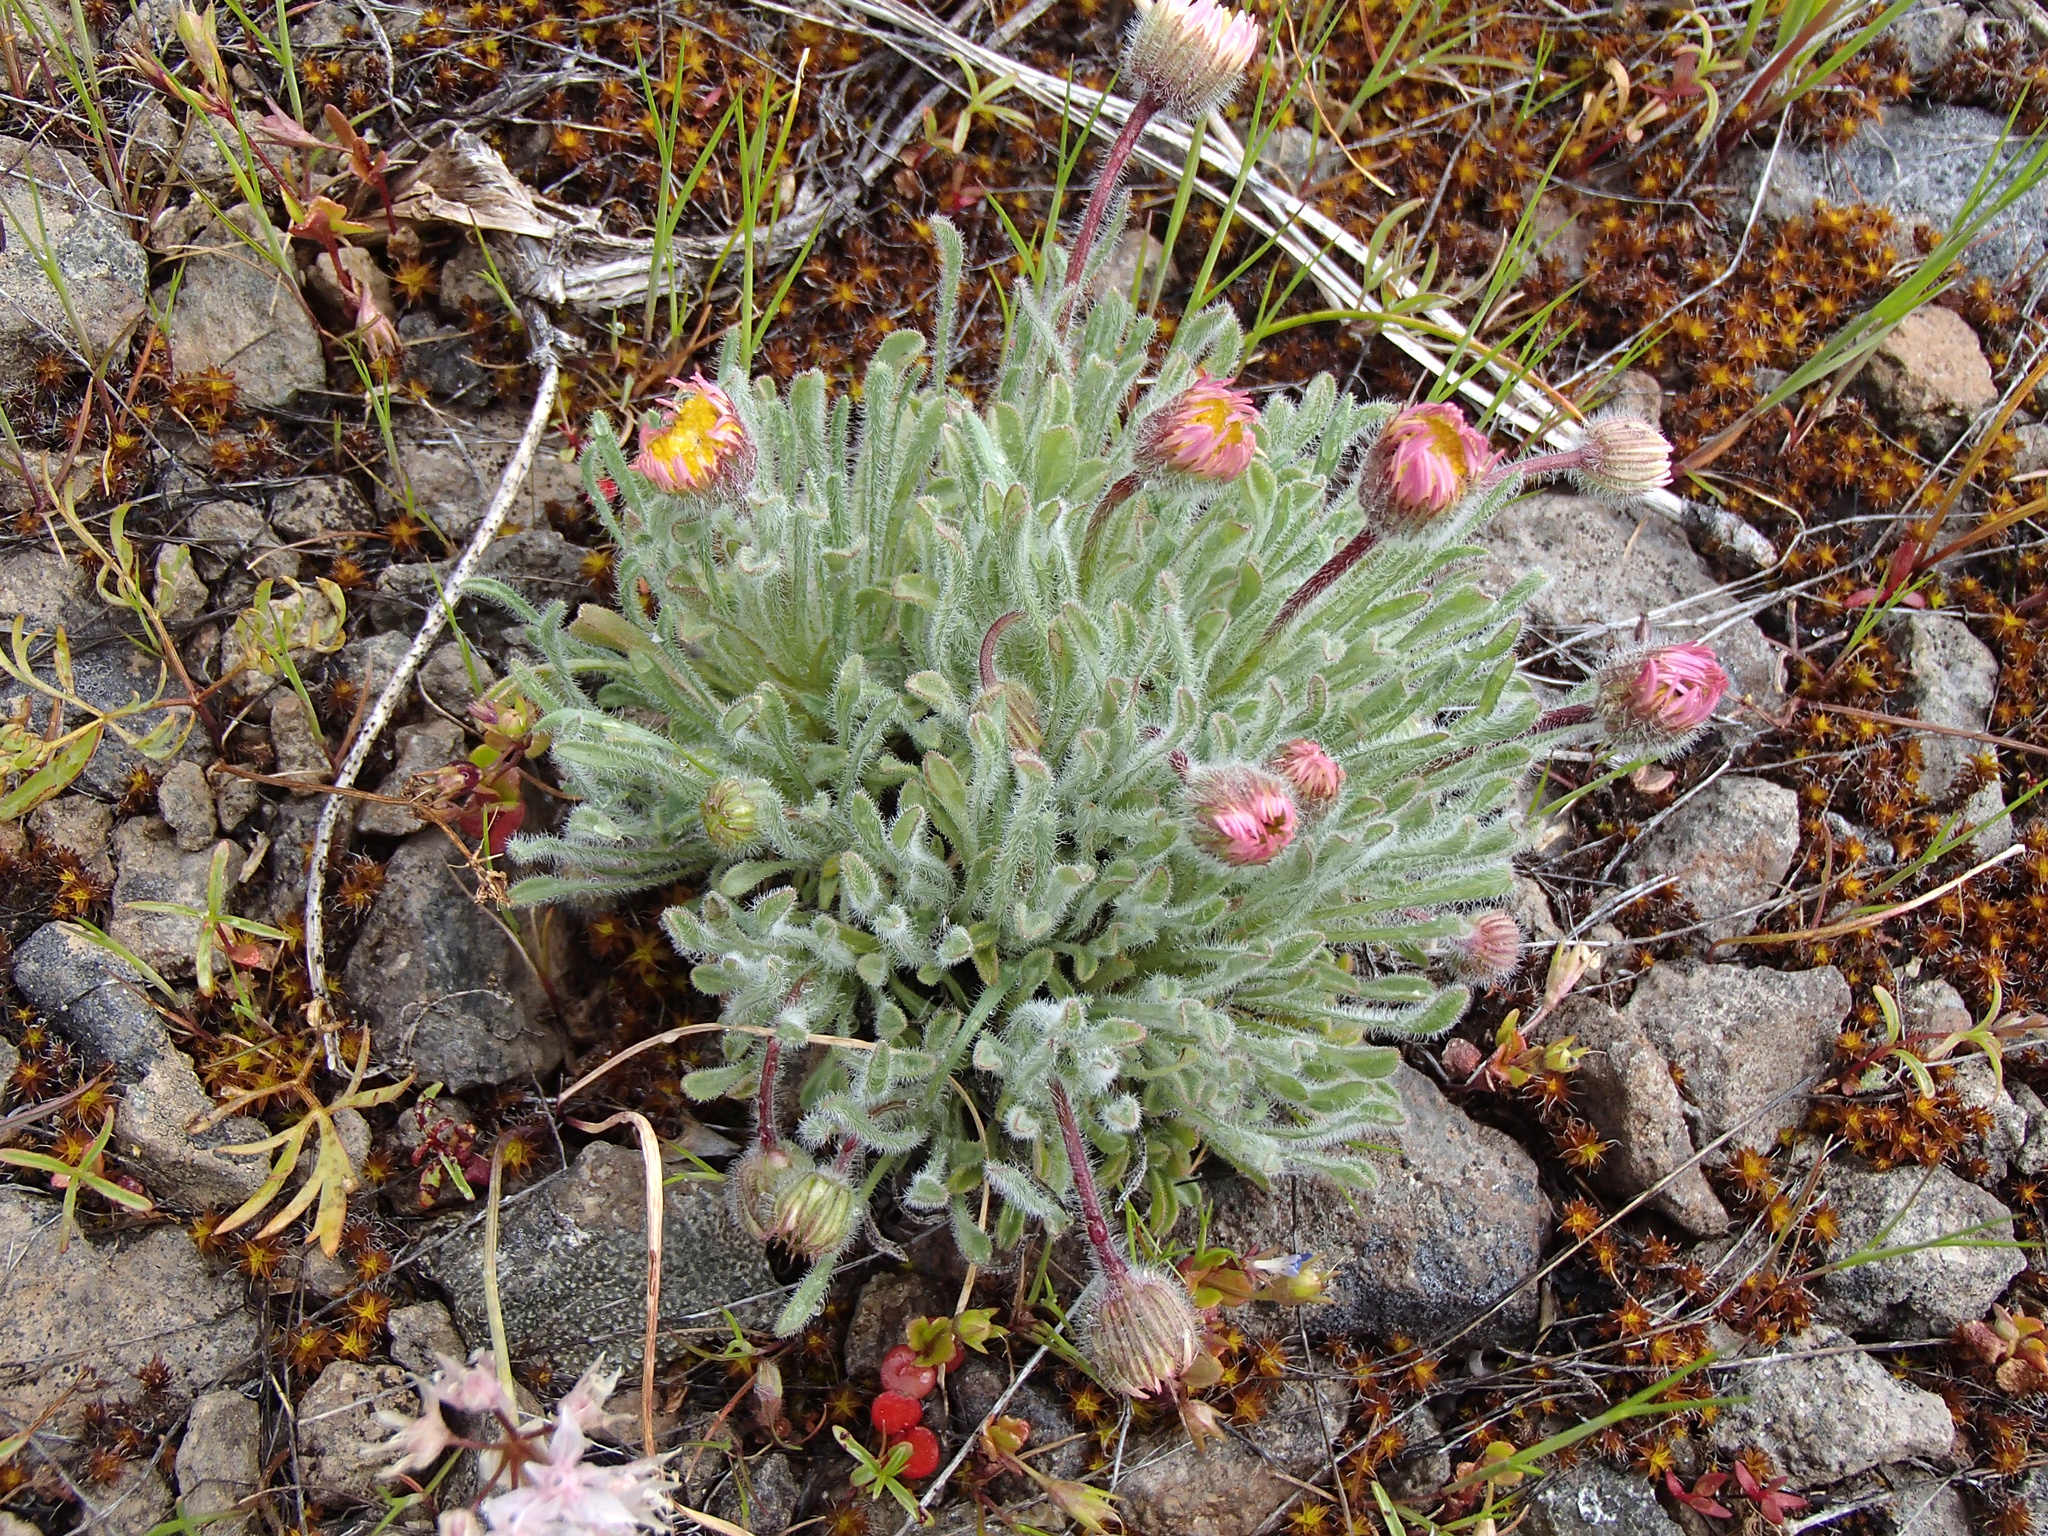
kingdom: Plantae
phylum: Tracheophyta
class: Magnoliopsida
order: Asterales
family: Asteraceae
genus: Erigeron
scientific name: Erigeron poliospermus
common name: Cushion fleabane
